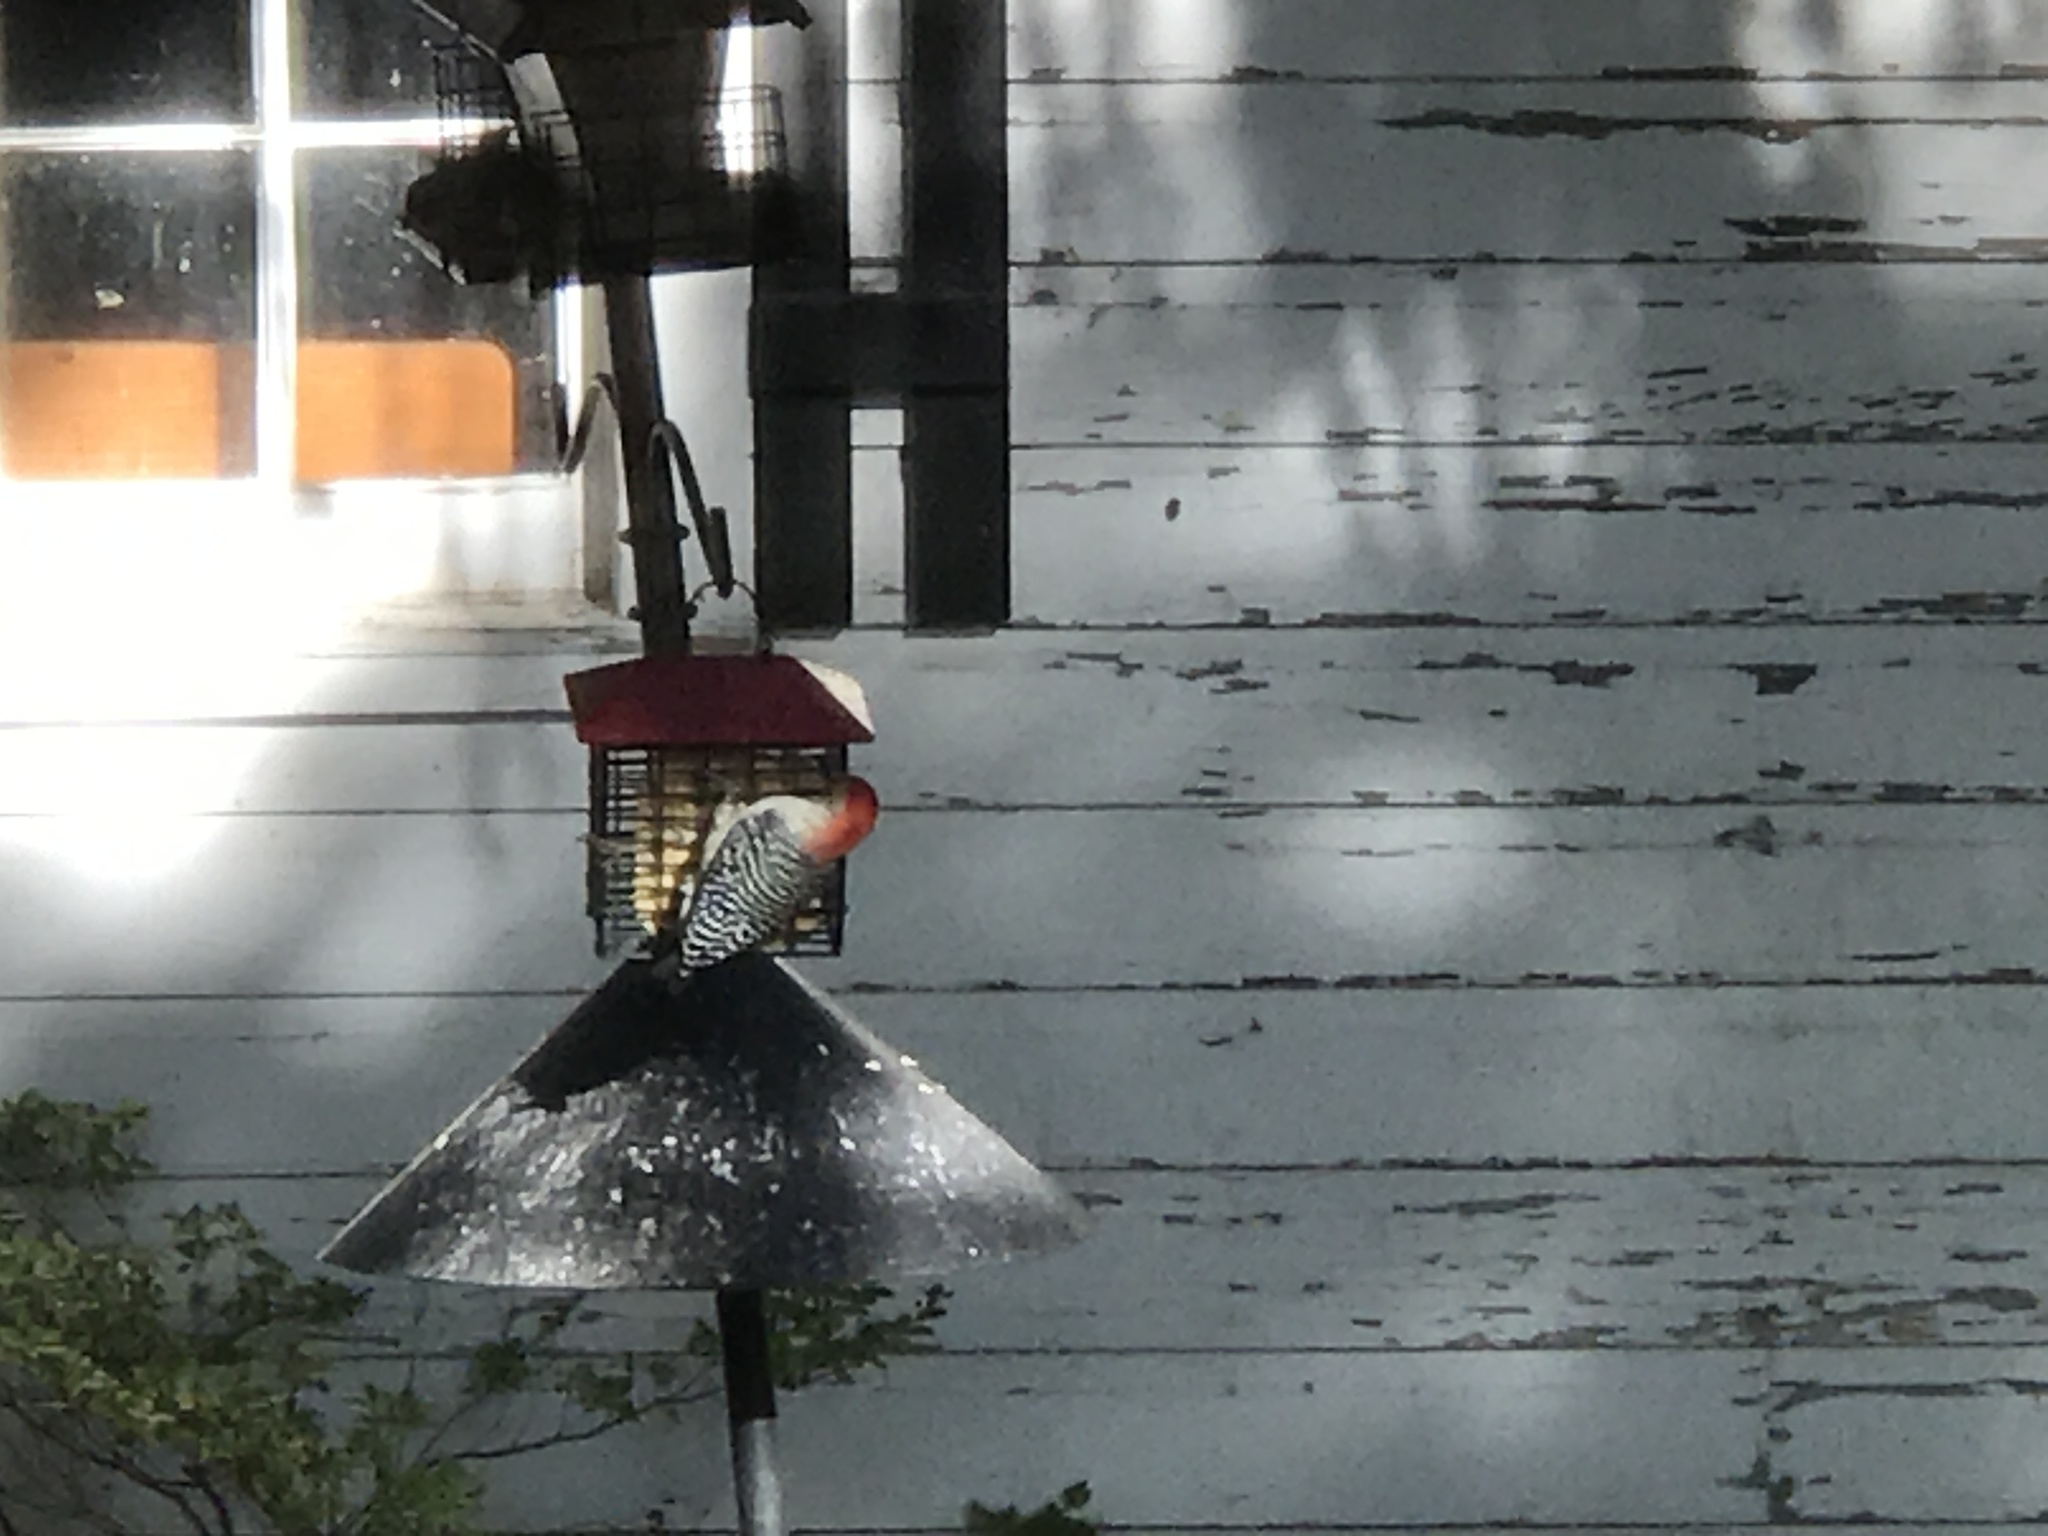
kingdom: Animalia
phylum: Chordata
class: Aves
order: Piciformes
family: Picidae
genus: Melanerpes
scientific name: Melanerpes carolinus
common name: Red-bellied woodpecker
